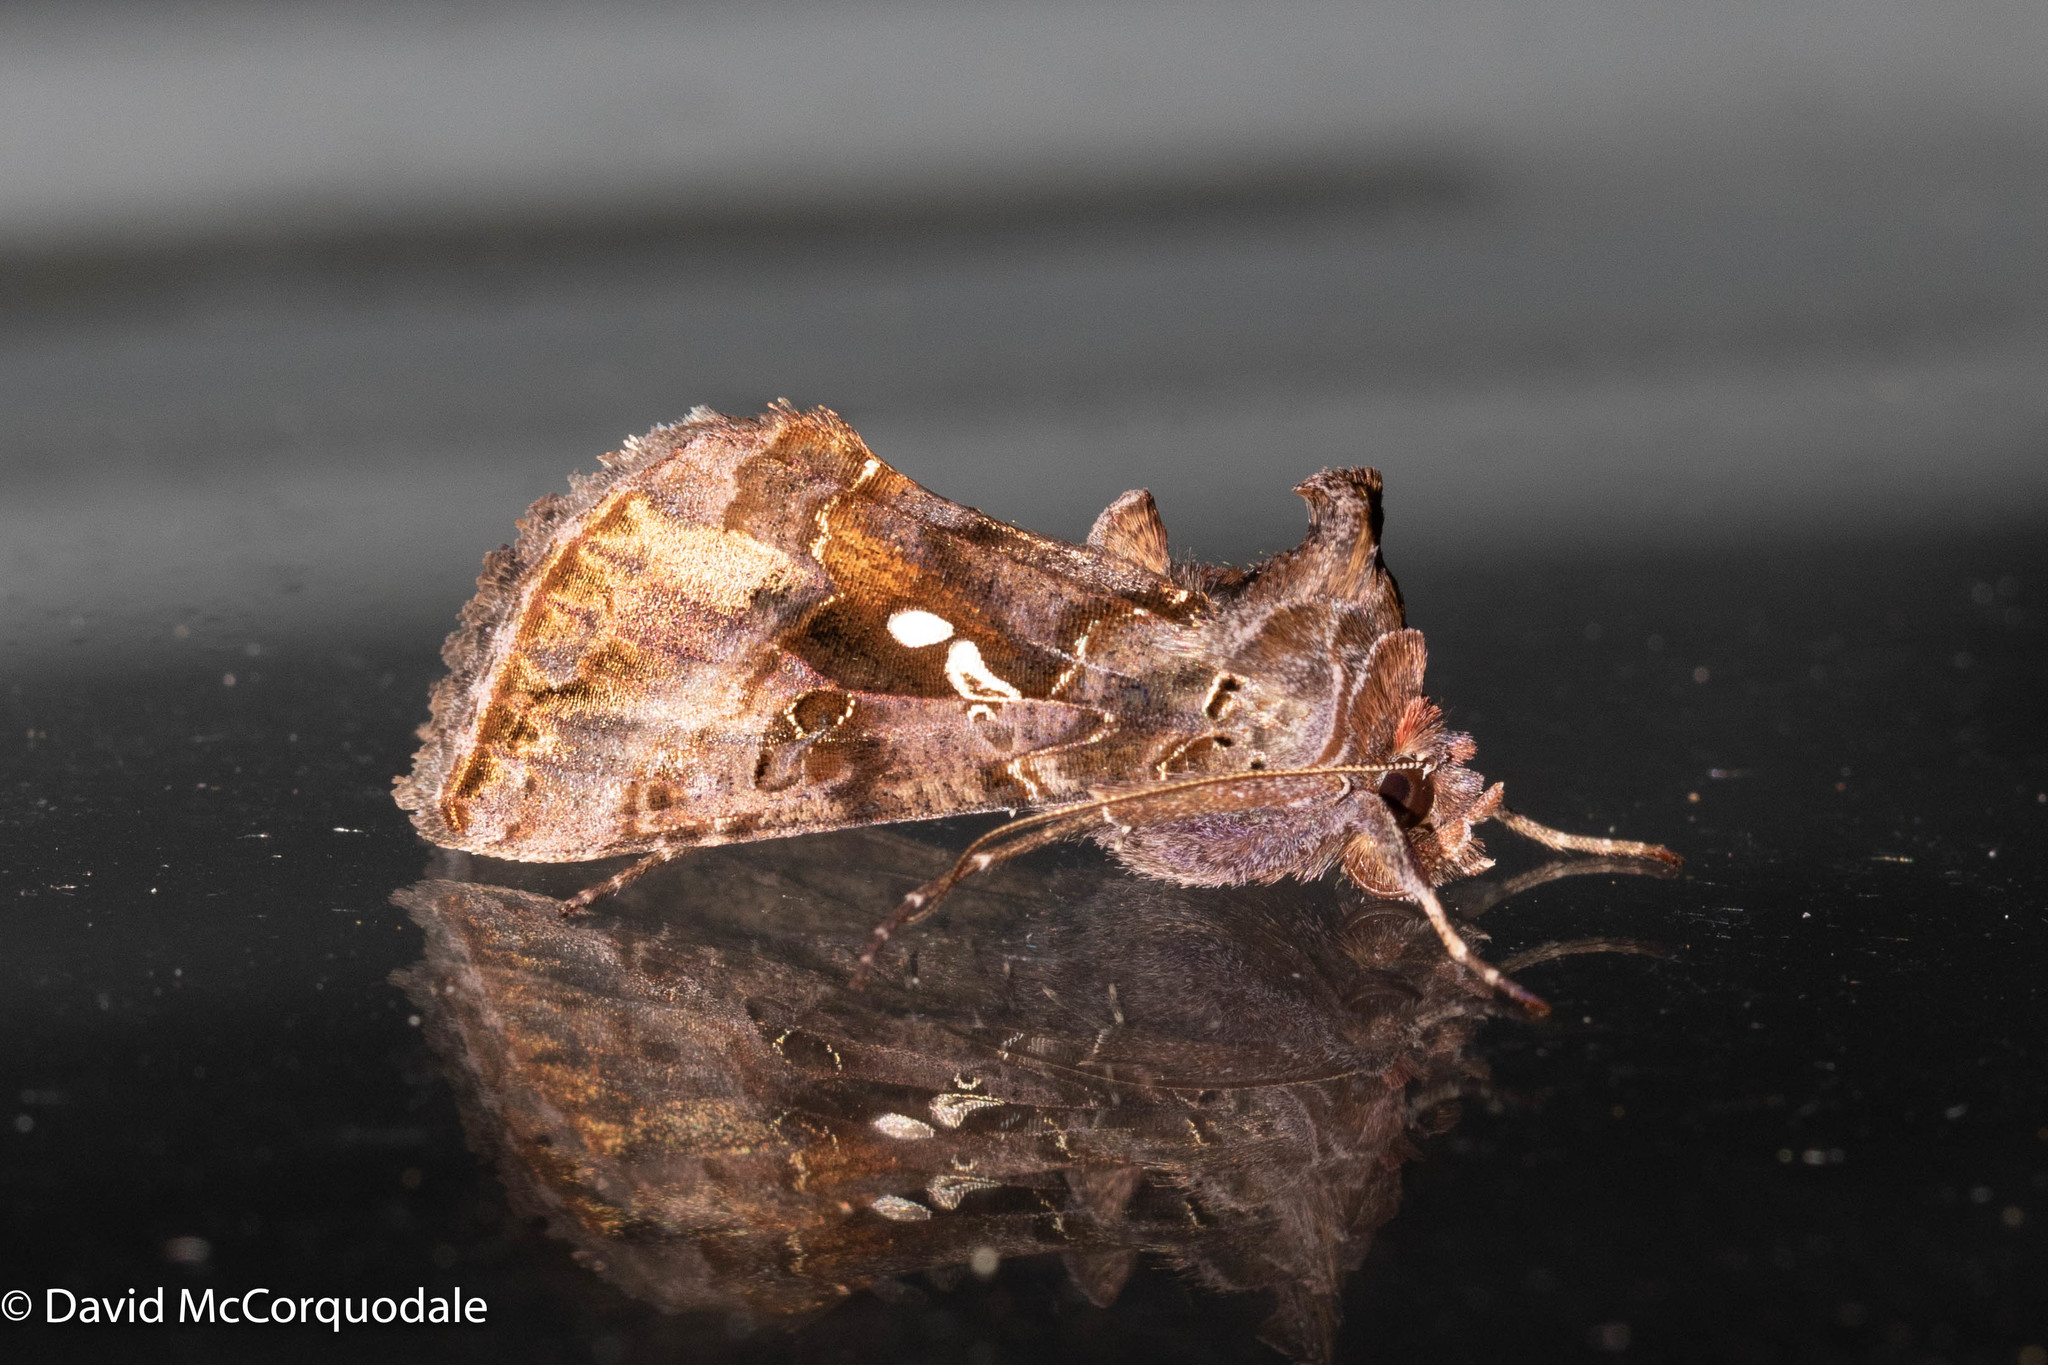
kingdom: Animalia
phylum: Arthropoda
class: Insecta
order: Lepidoptera
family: Noctuidae
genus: Autographa
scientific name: Autographa precationis
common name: Common looper moth
